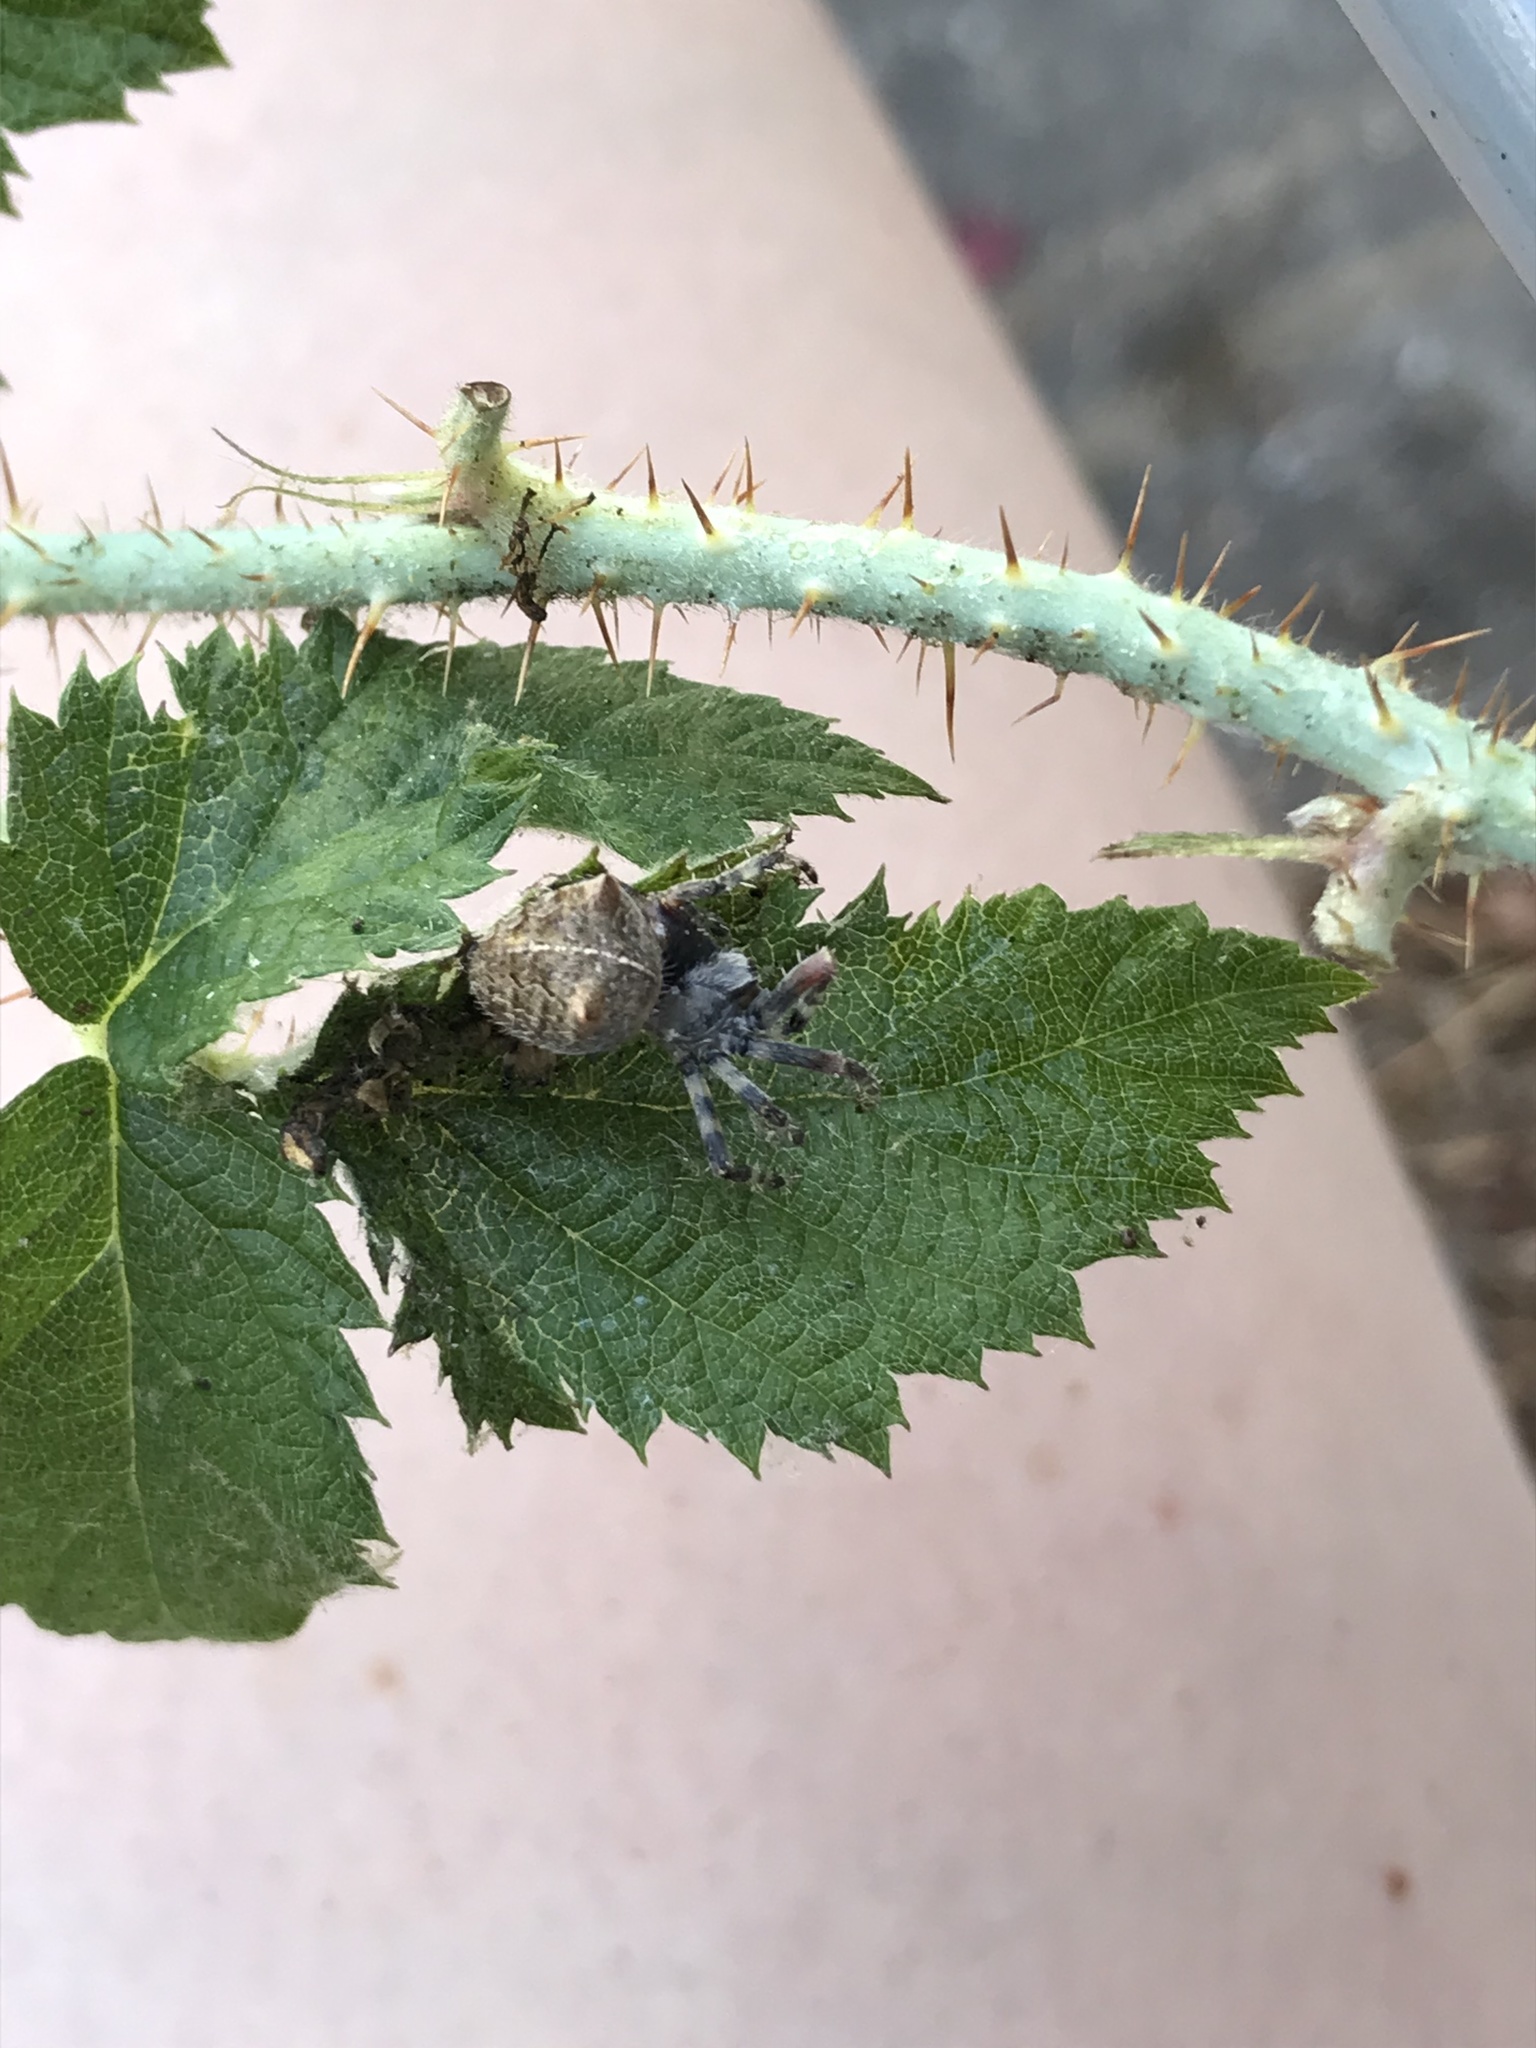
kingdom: Animalia
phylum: Arthropoda
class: Arachnida
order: Araneae
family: Araneidae
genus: Araneus
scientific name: Araneus gemma
